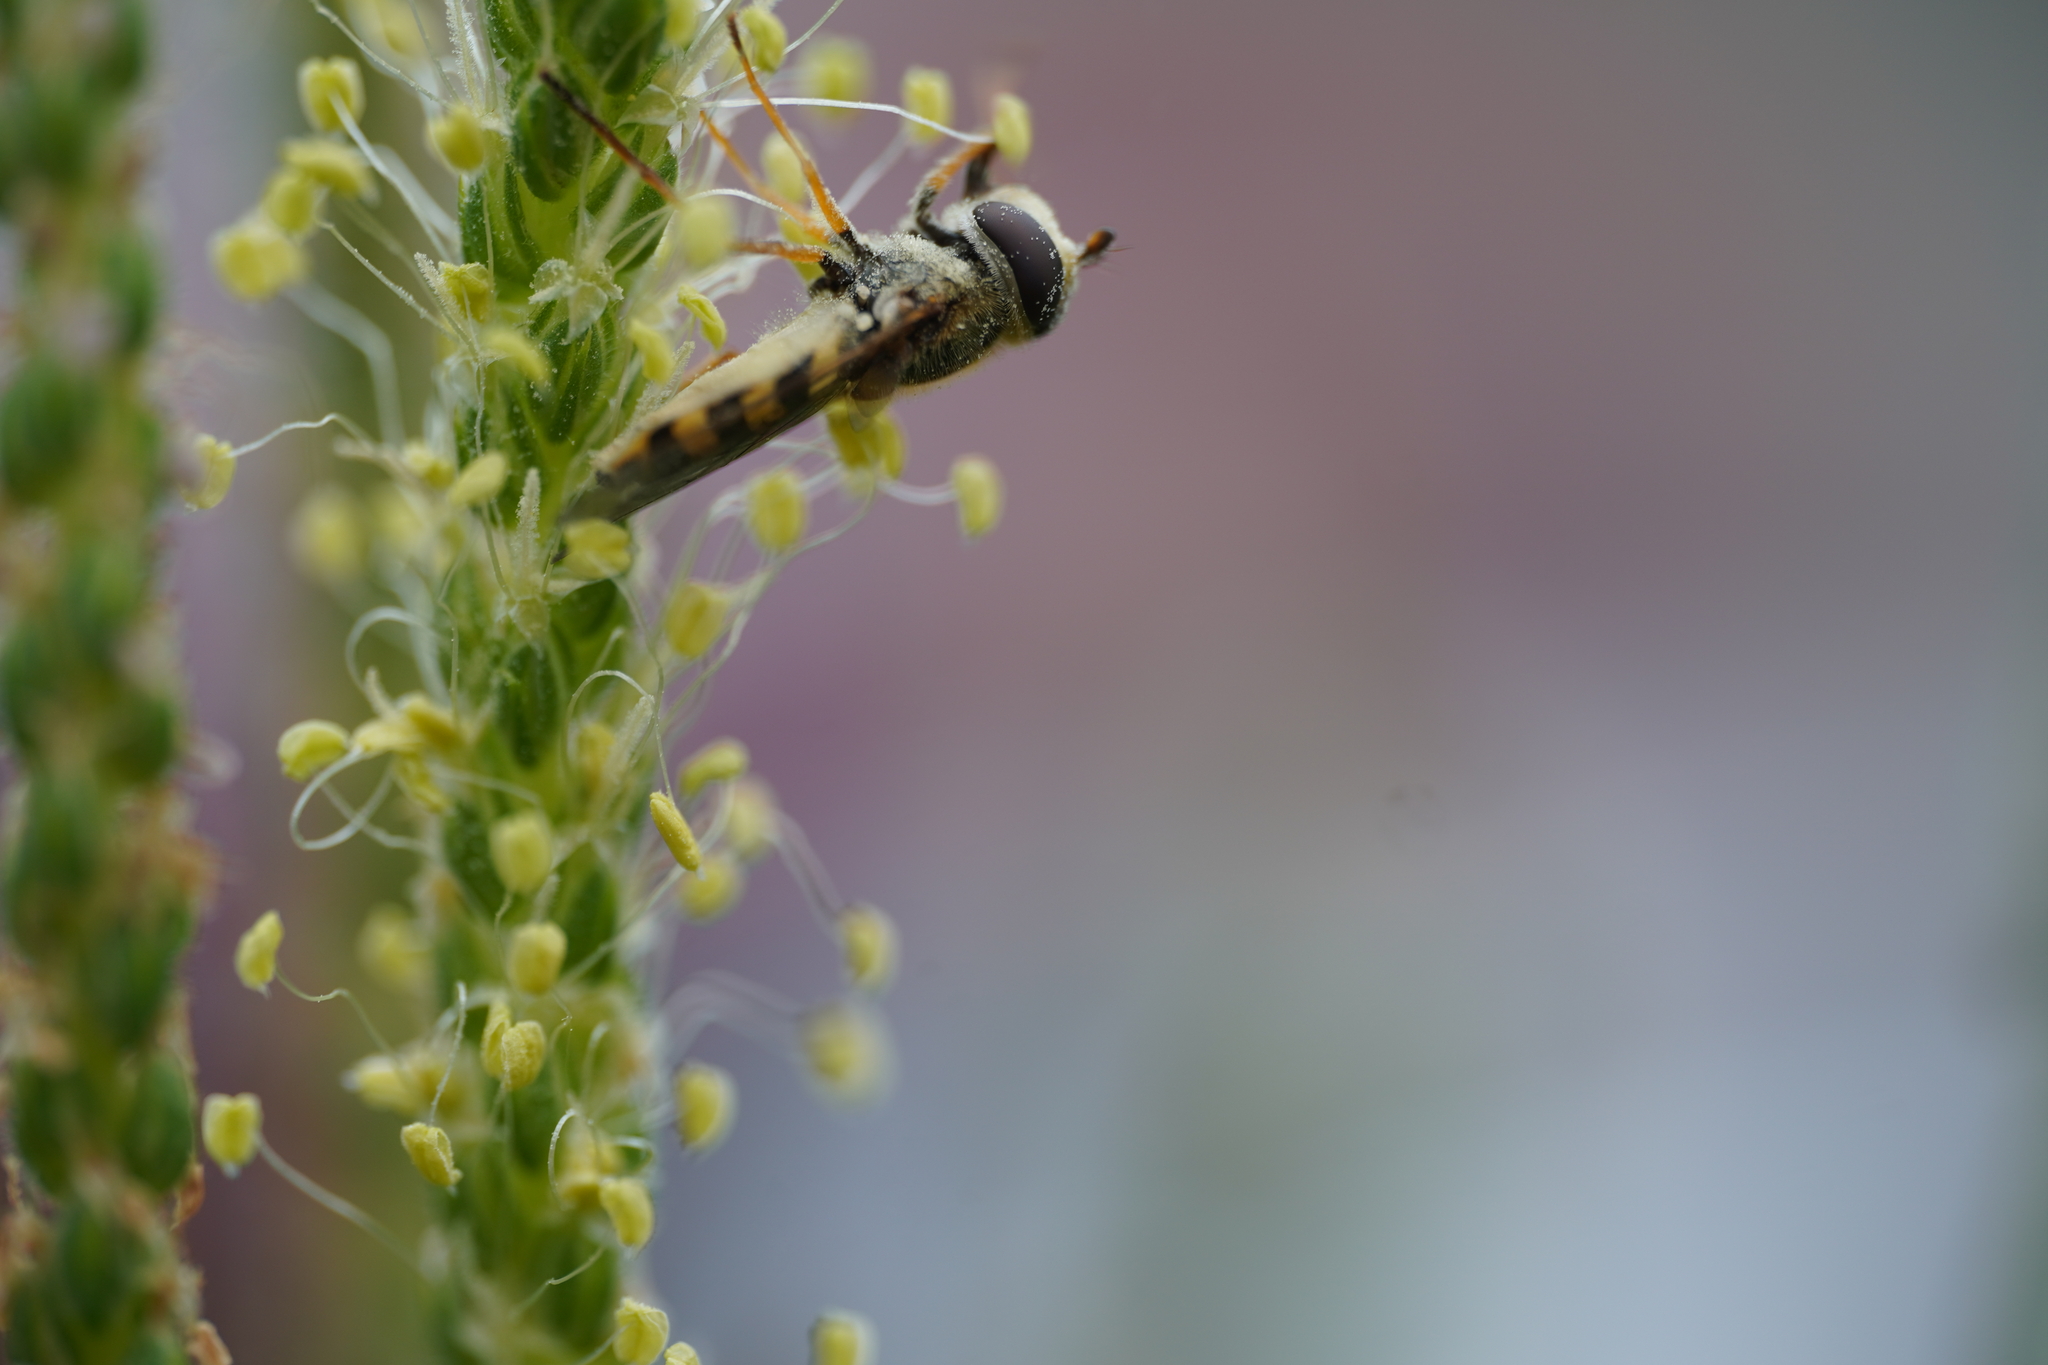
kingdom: Animalia
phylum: Arthropoda
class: Insecta
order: Diptera
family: Syrphidae
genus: Eupeodes
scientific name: Eupeodes corollae
